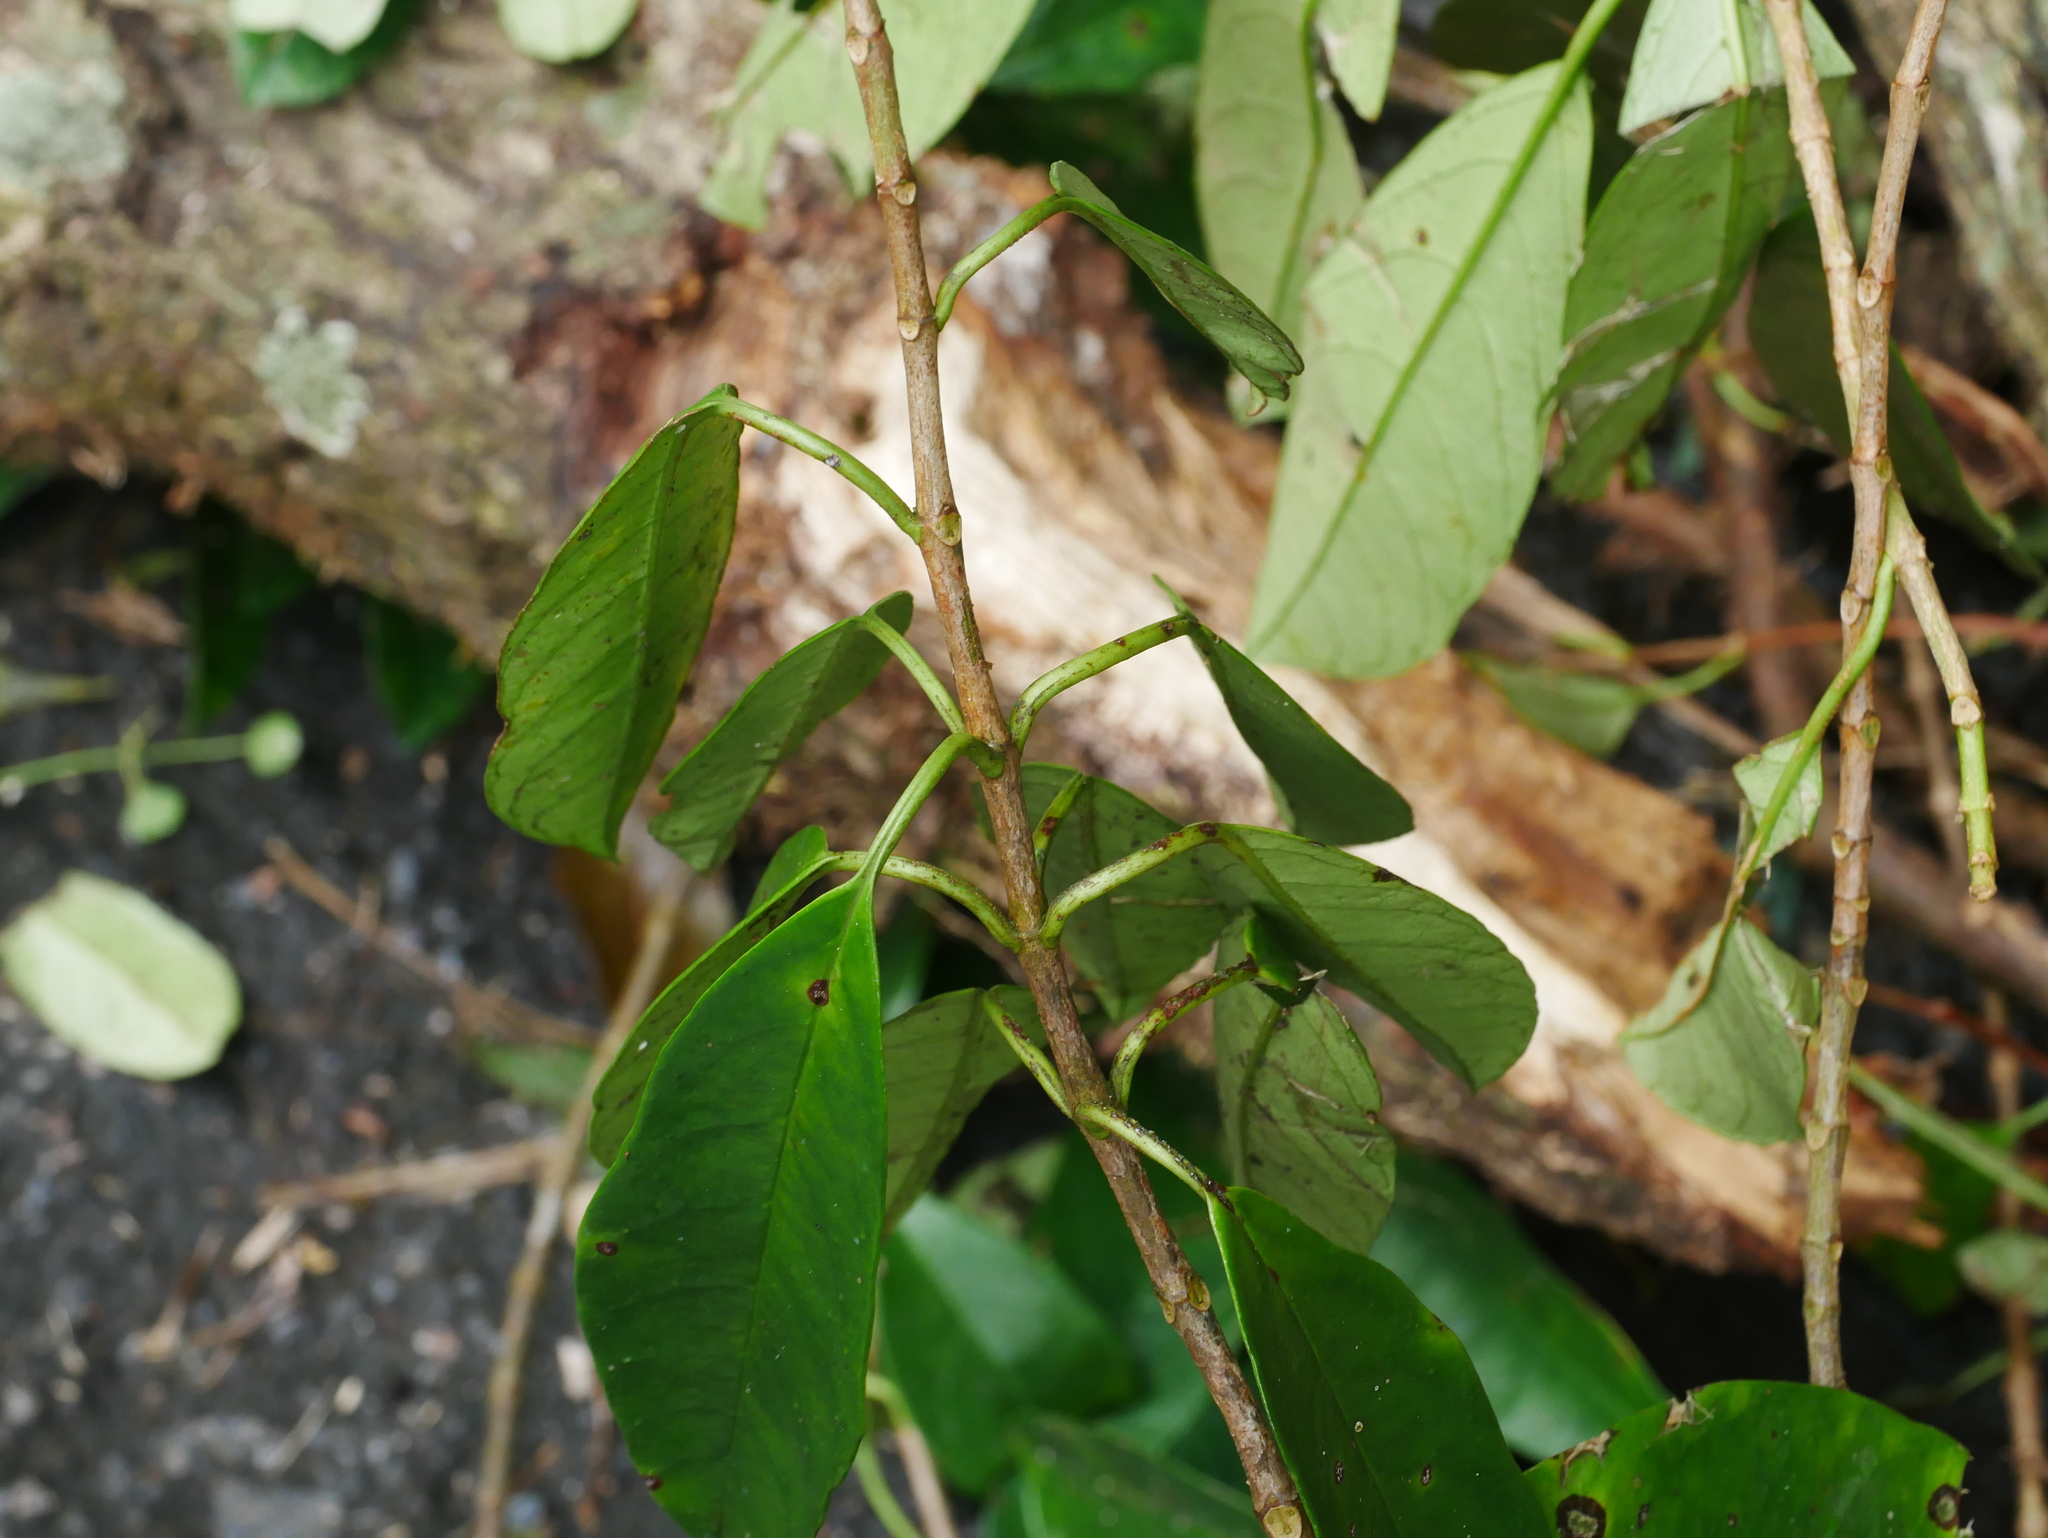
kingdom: Plantae
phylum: Tracheophyta
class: Magnoliopsida
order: Cornales
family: Hydrangeaceae
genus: Hydrangea
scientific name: Hydrangea viburnoides
